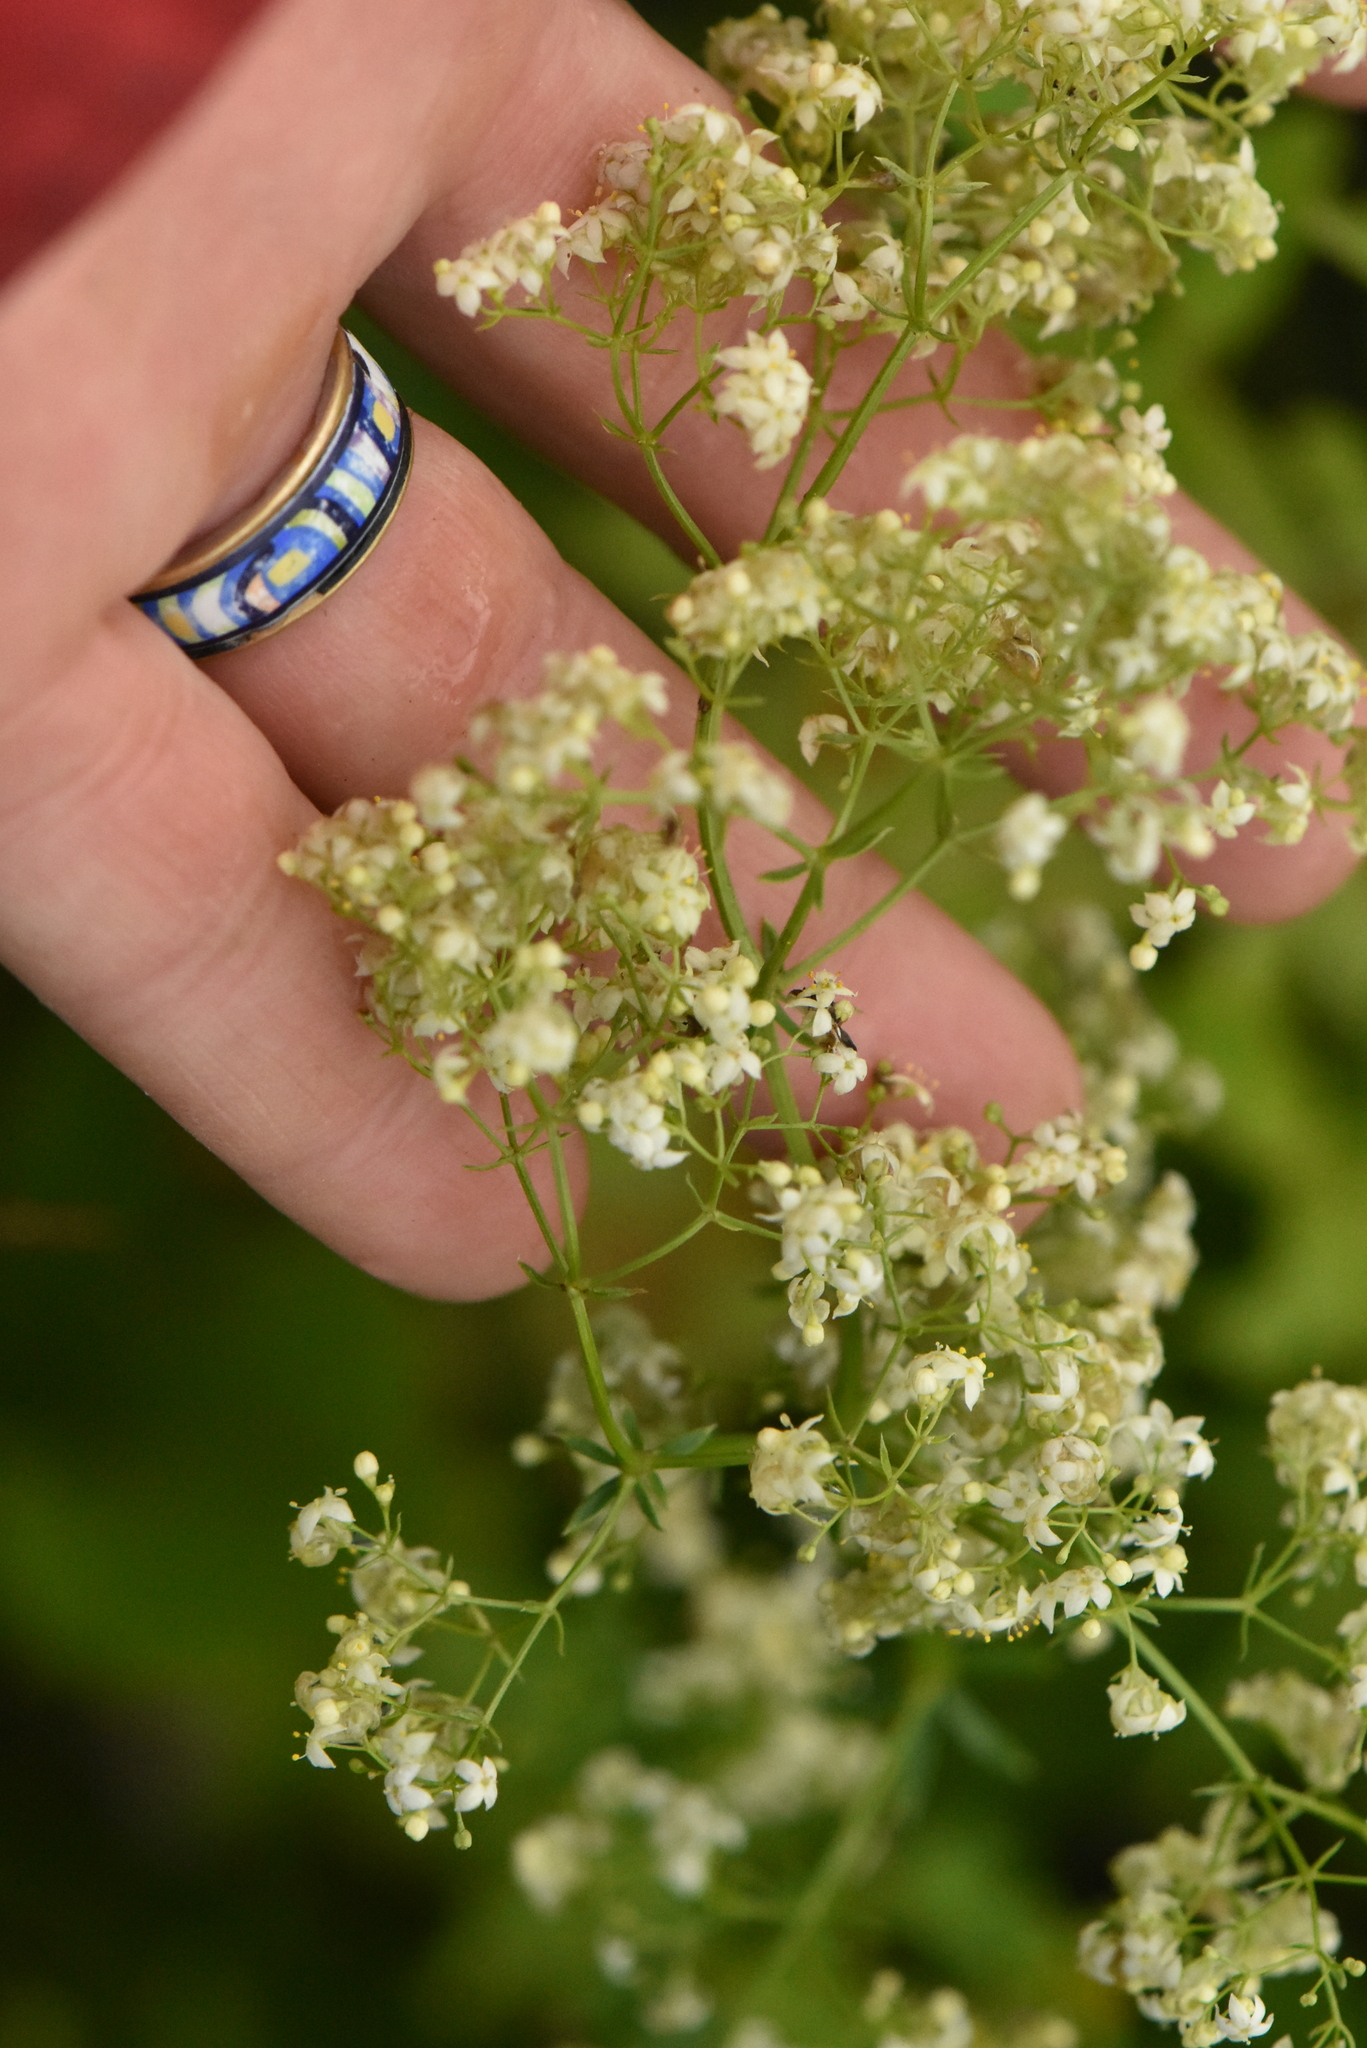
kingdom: Plantae
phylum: Tracheophyta
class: Magnoliopsida
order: Gentianales
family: Rubiaceae
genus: Galium
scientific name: Galium mollugo
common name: Hedge bedstraw
